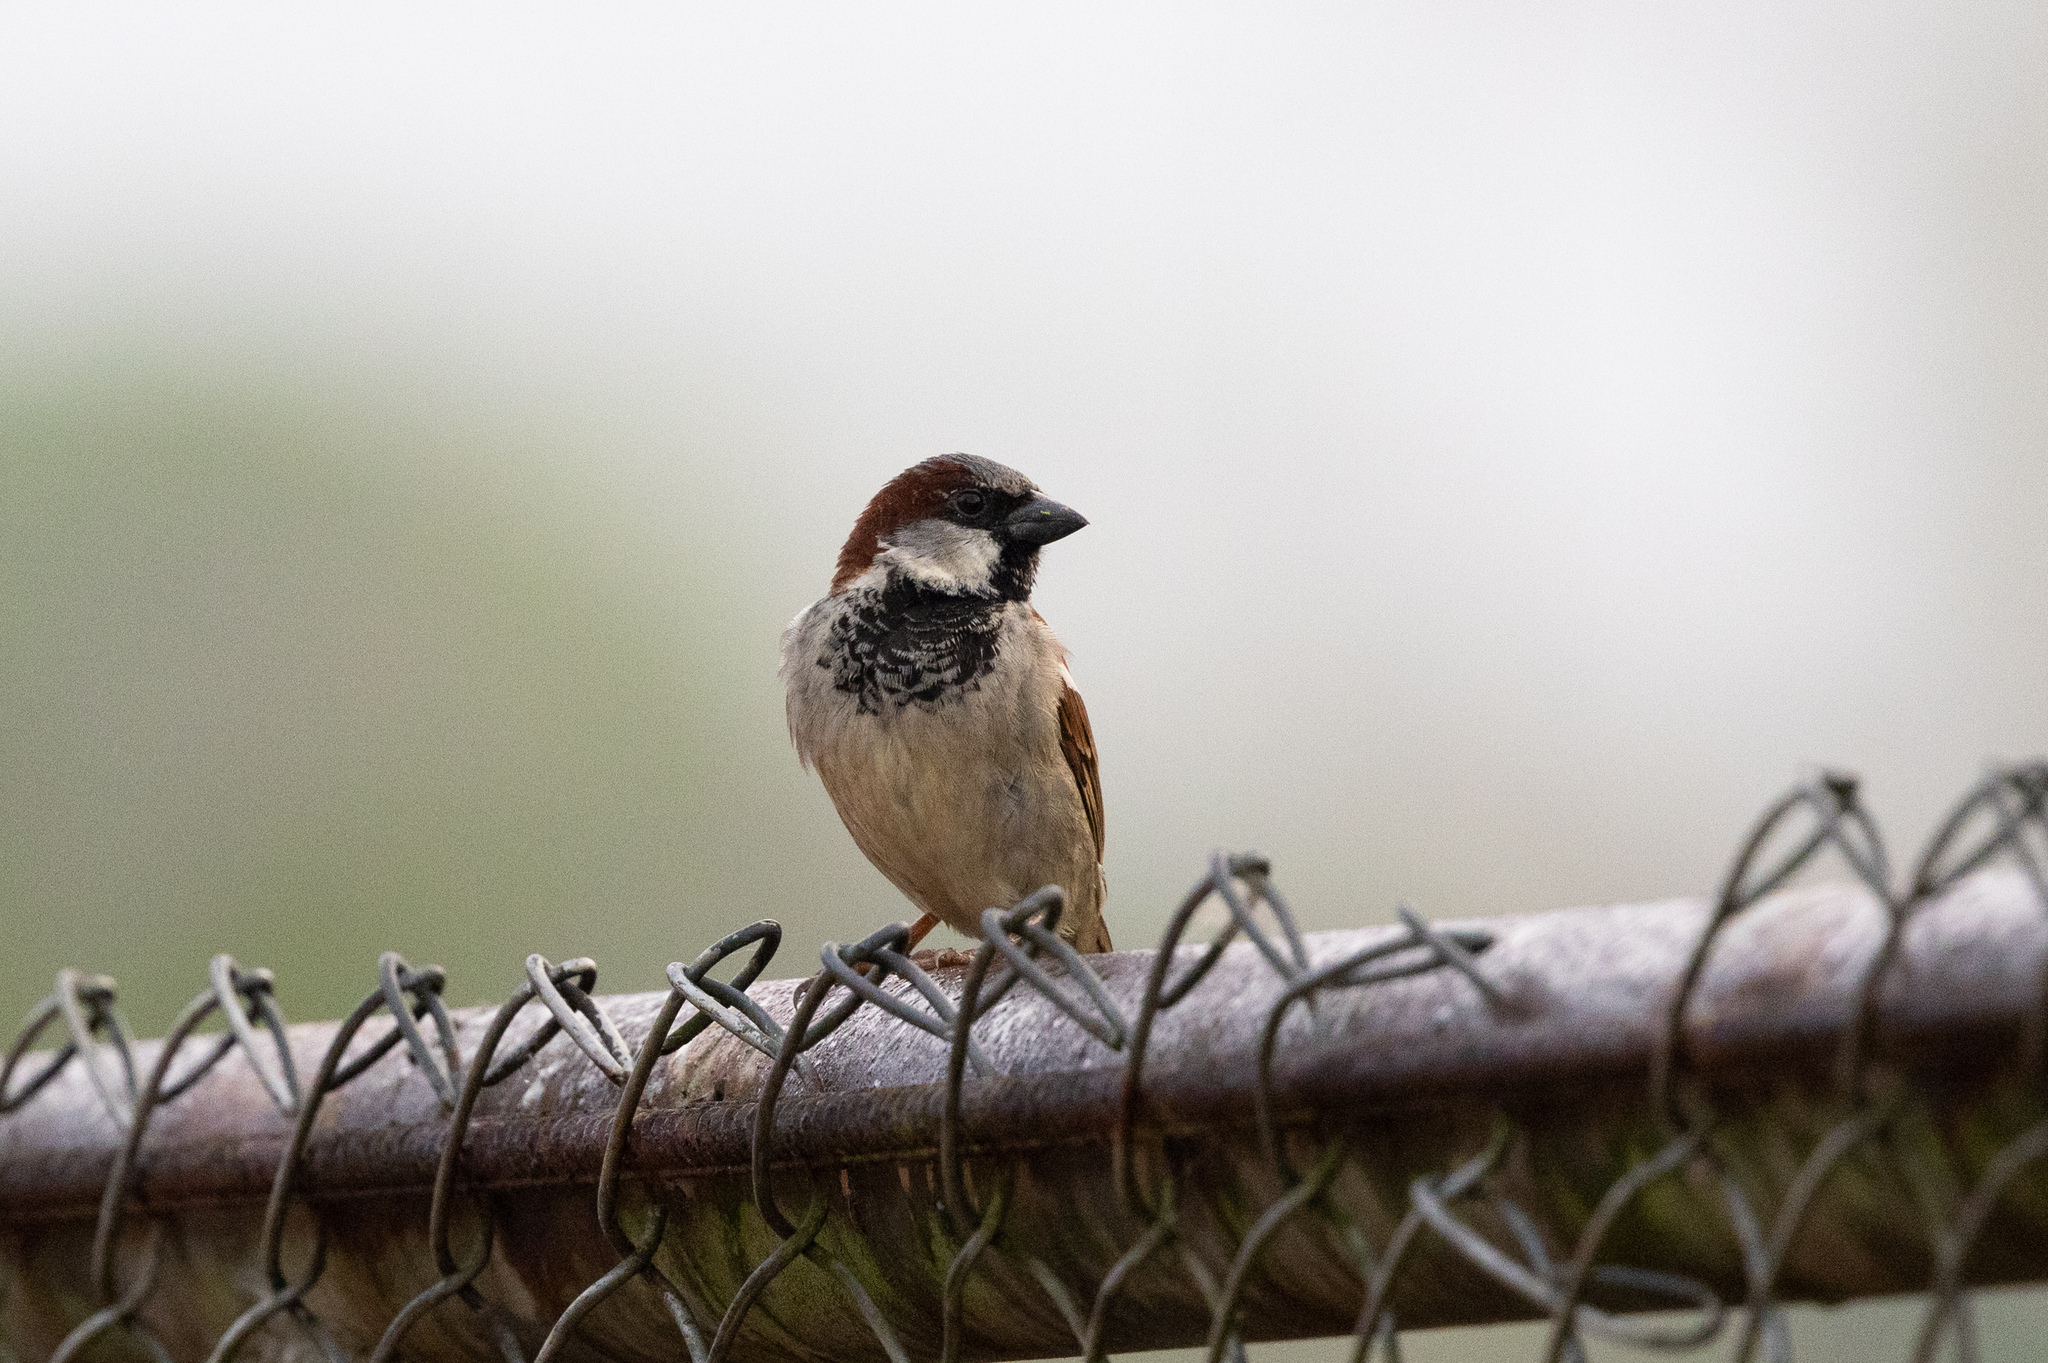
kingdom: Animalia
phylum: Chordata
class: Aves
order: Passeriformes
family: Passeridae
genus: Passer
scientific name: Passer domesticus
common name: House sparrow
